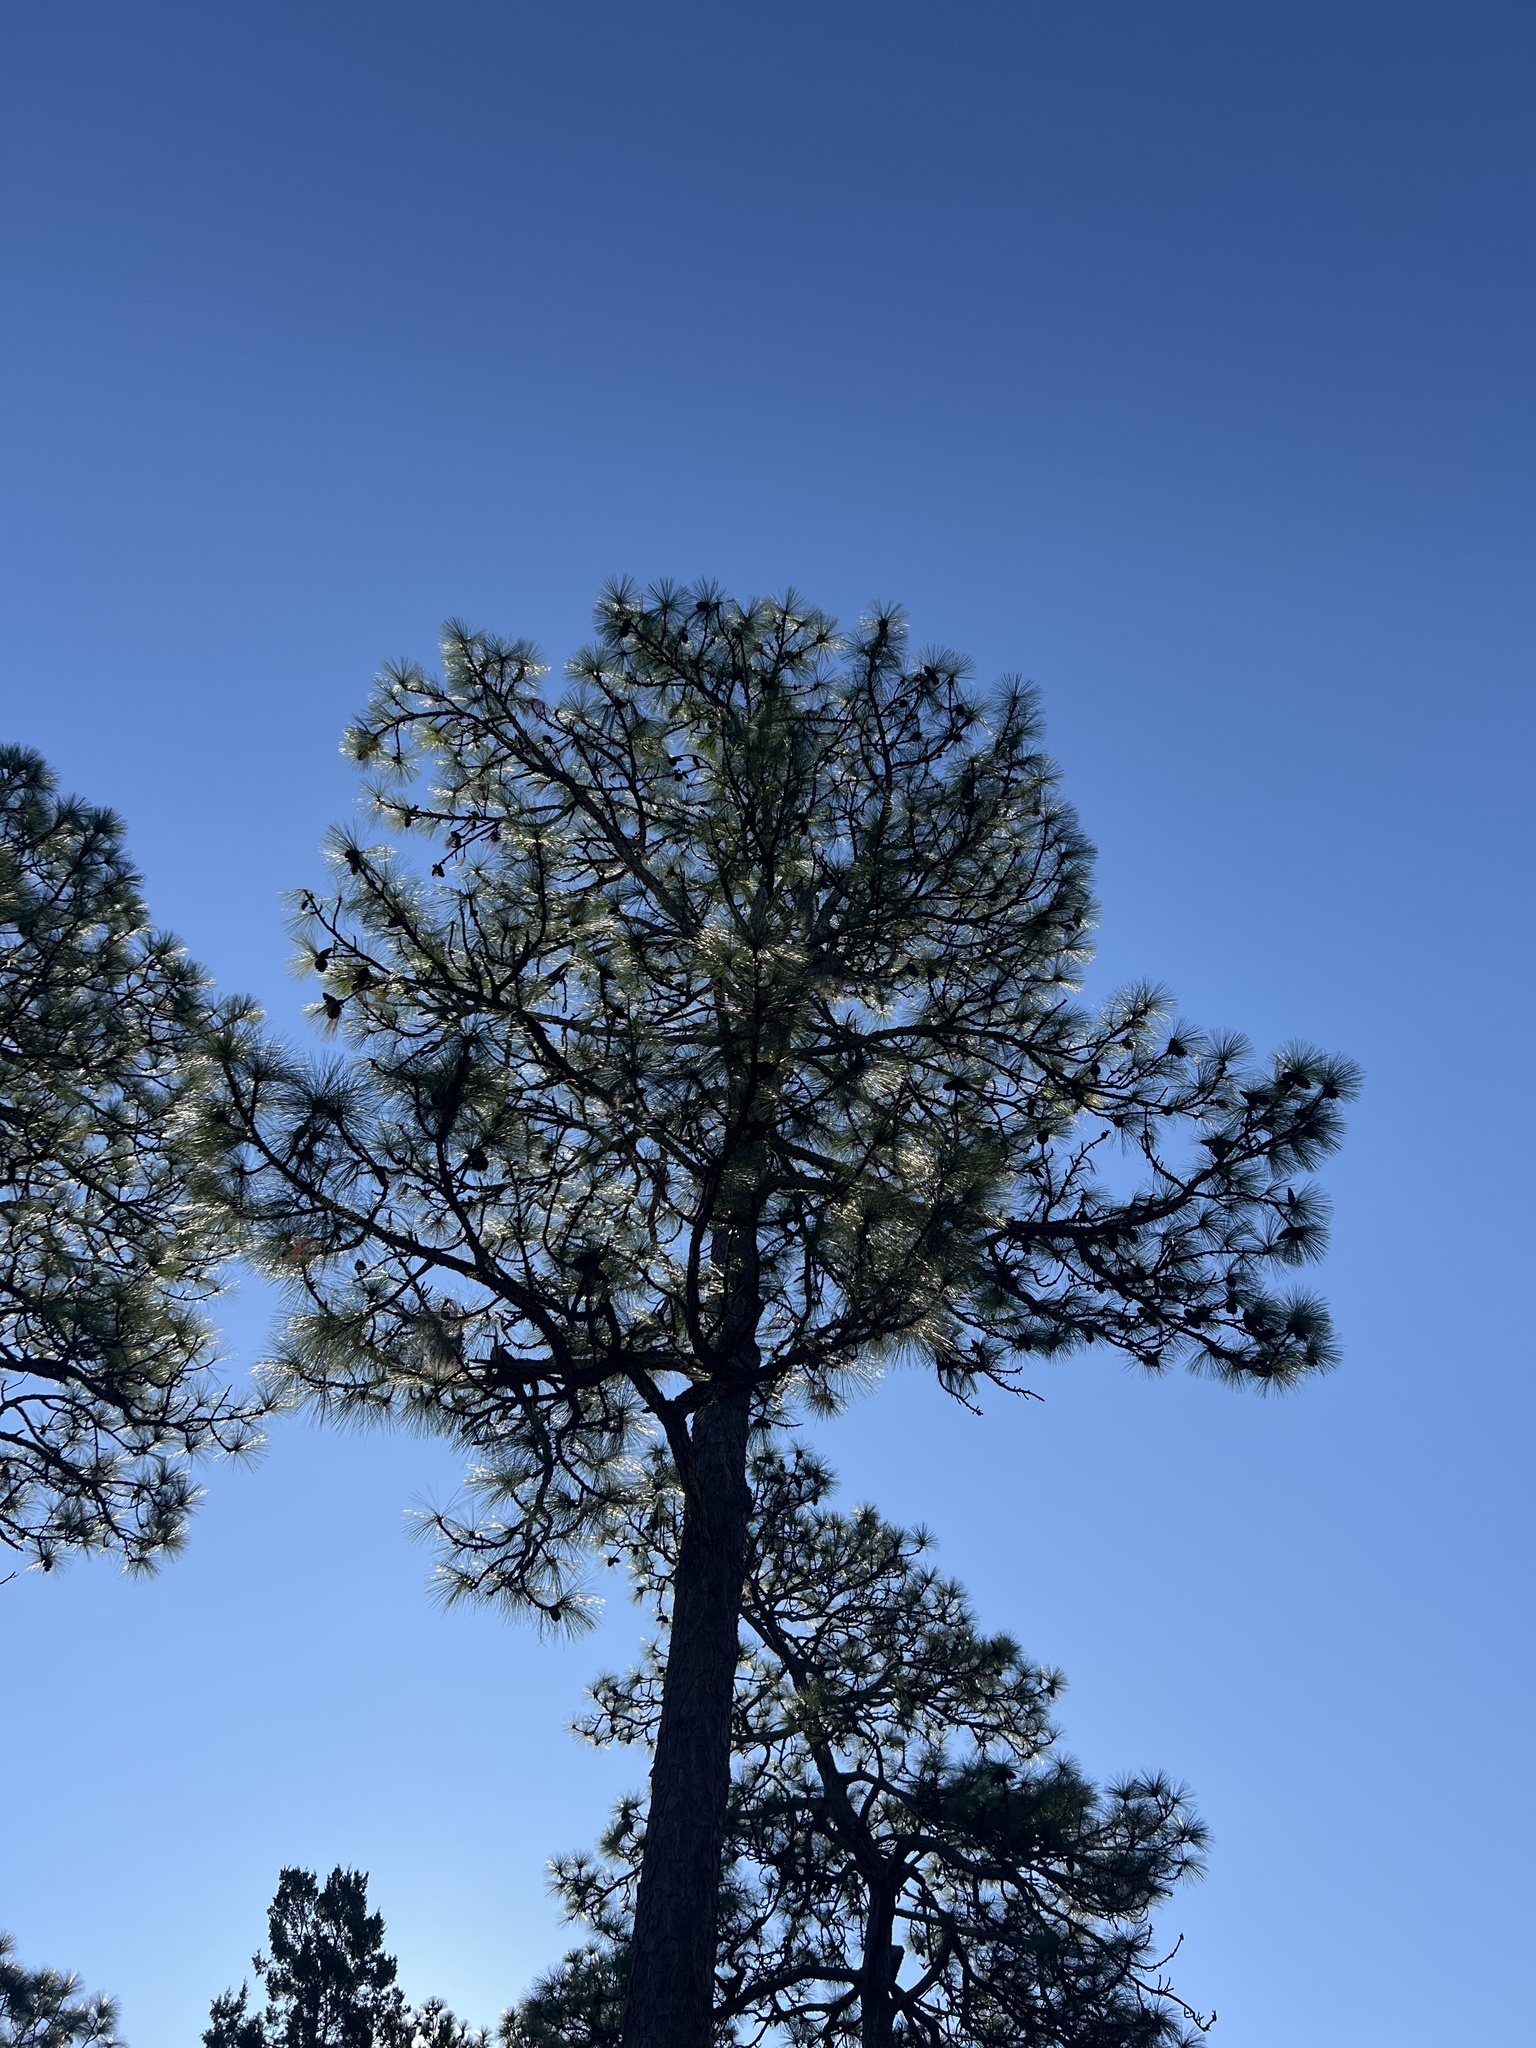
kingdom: Plantae
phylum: Tracheophyta
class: Pinopsida
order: Pinales
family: Pinaceae
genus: Pinus
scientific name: Pinus palustris
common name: Longleaf pine
